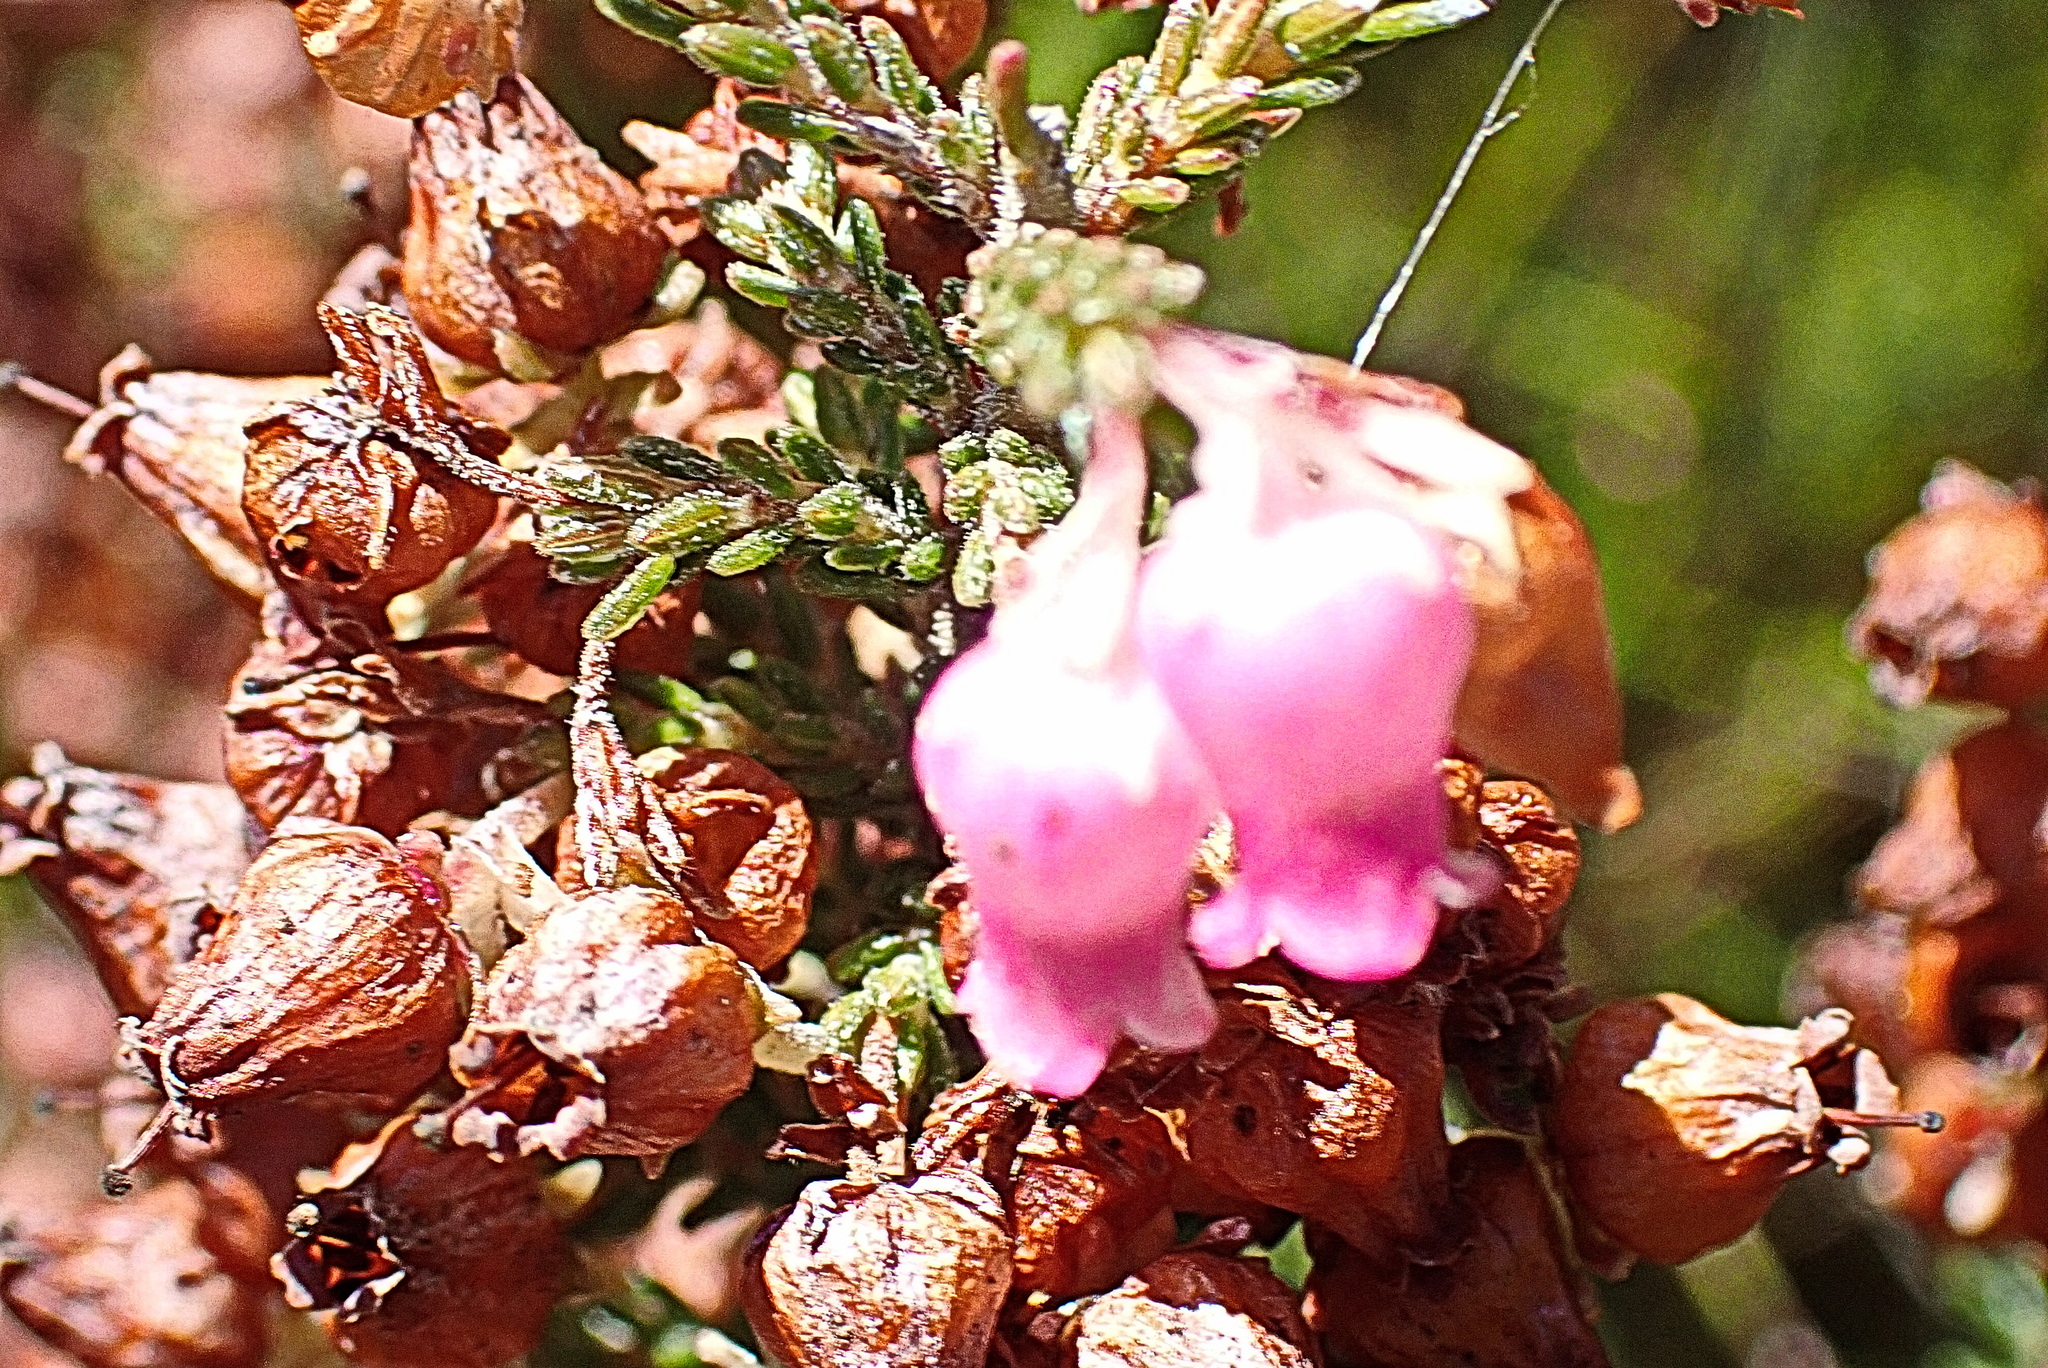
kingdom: Plantae
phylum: Tracheophyta
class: Magnoliopsida
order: Ericales
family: Ericaceae
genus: Erica
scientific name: Erica glomiflora
